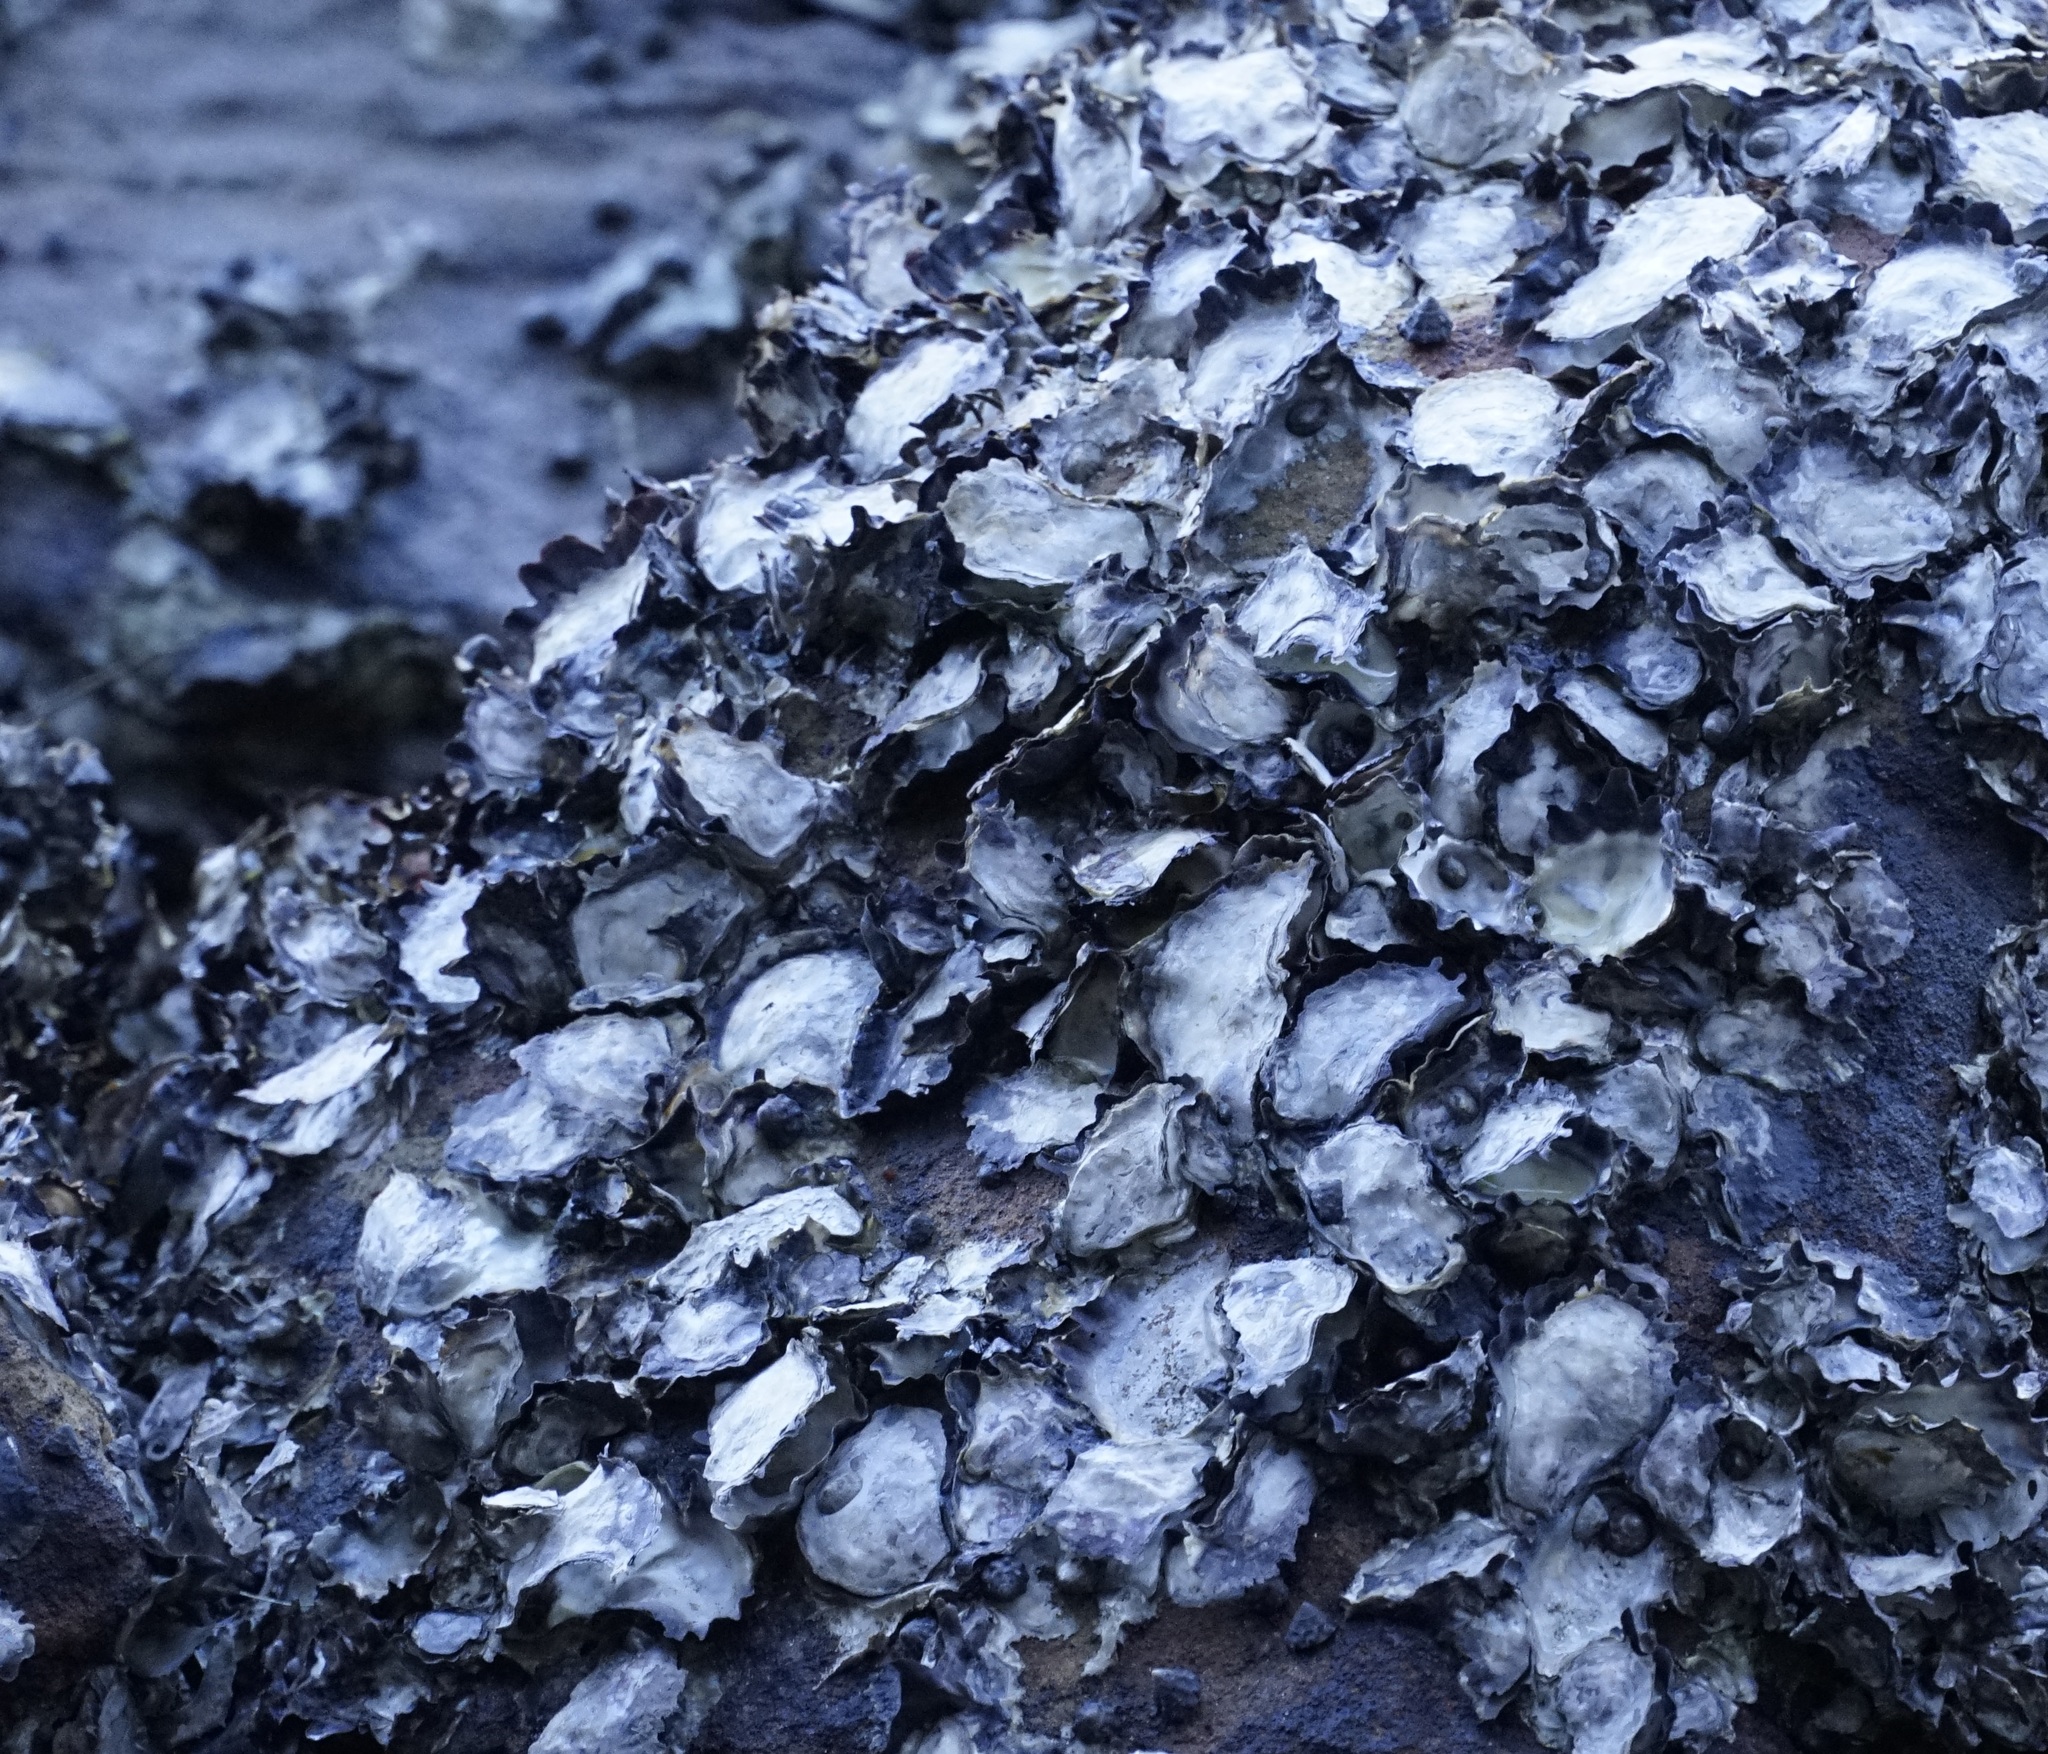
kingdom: Animalia
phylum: Mollusca
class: Bivalvia
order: Ostreida
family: Ostreidae
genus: Saccostrea
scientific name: Saccostrea glomerata
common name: Sydney cupped oyster
